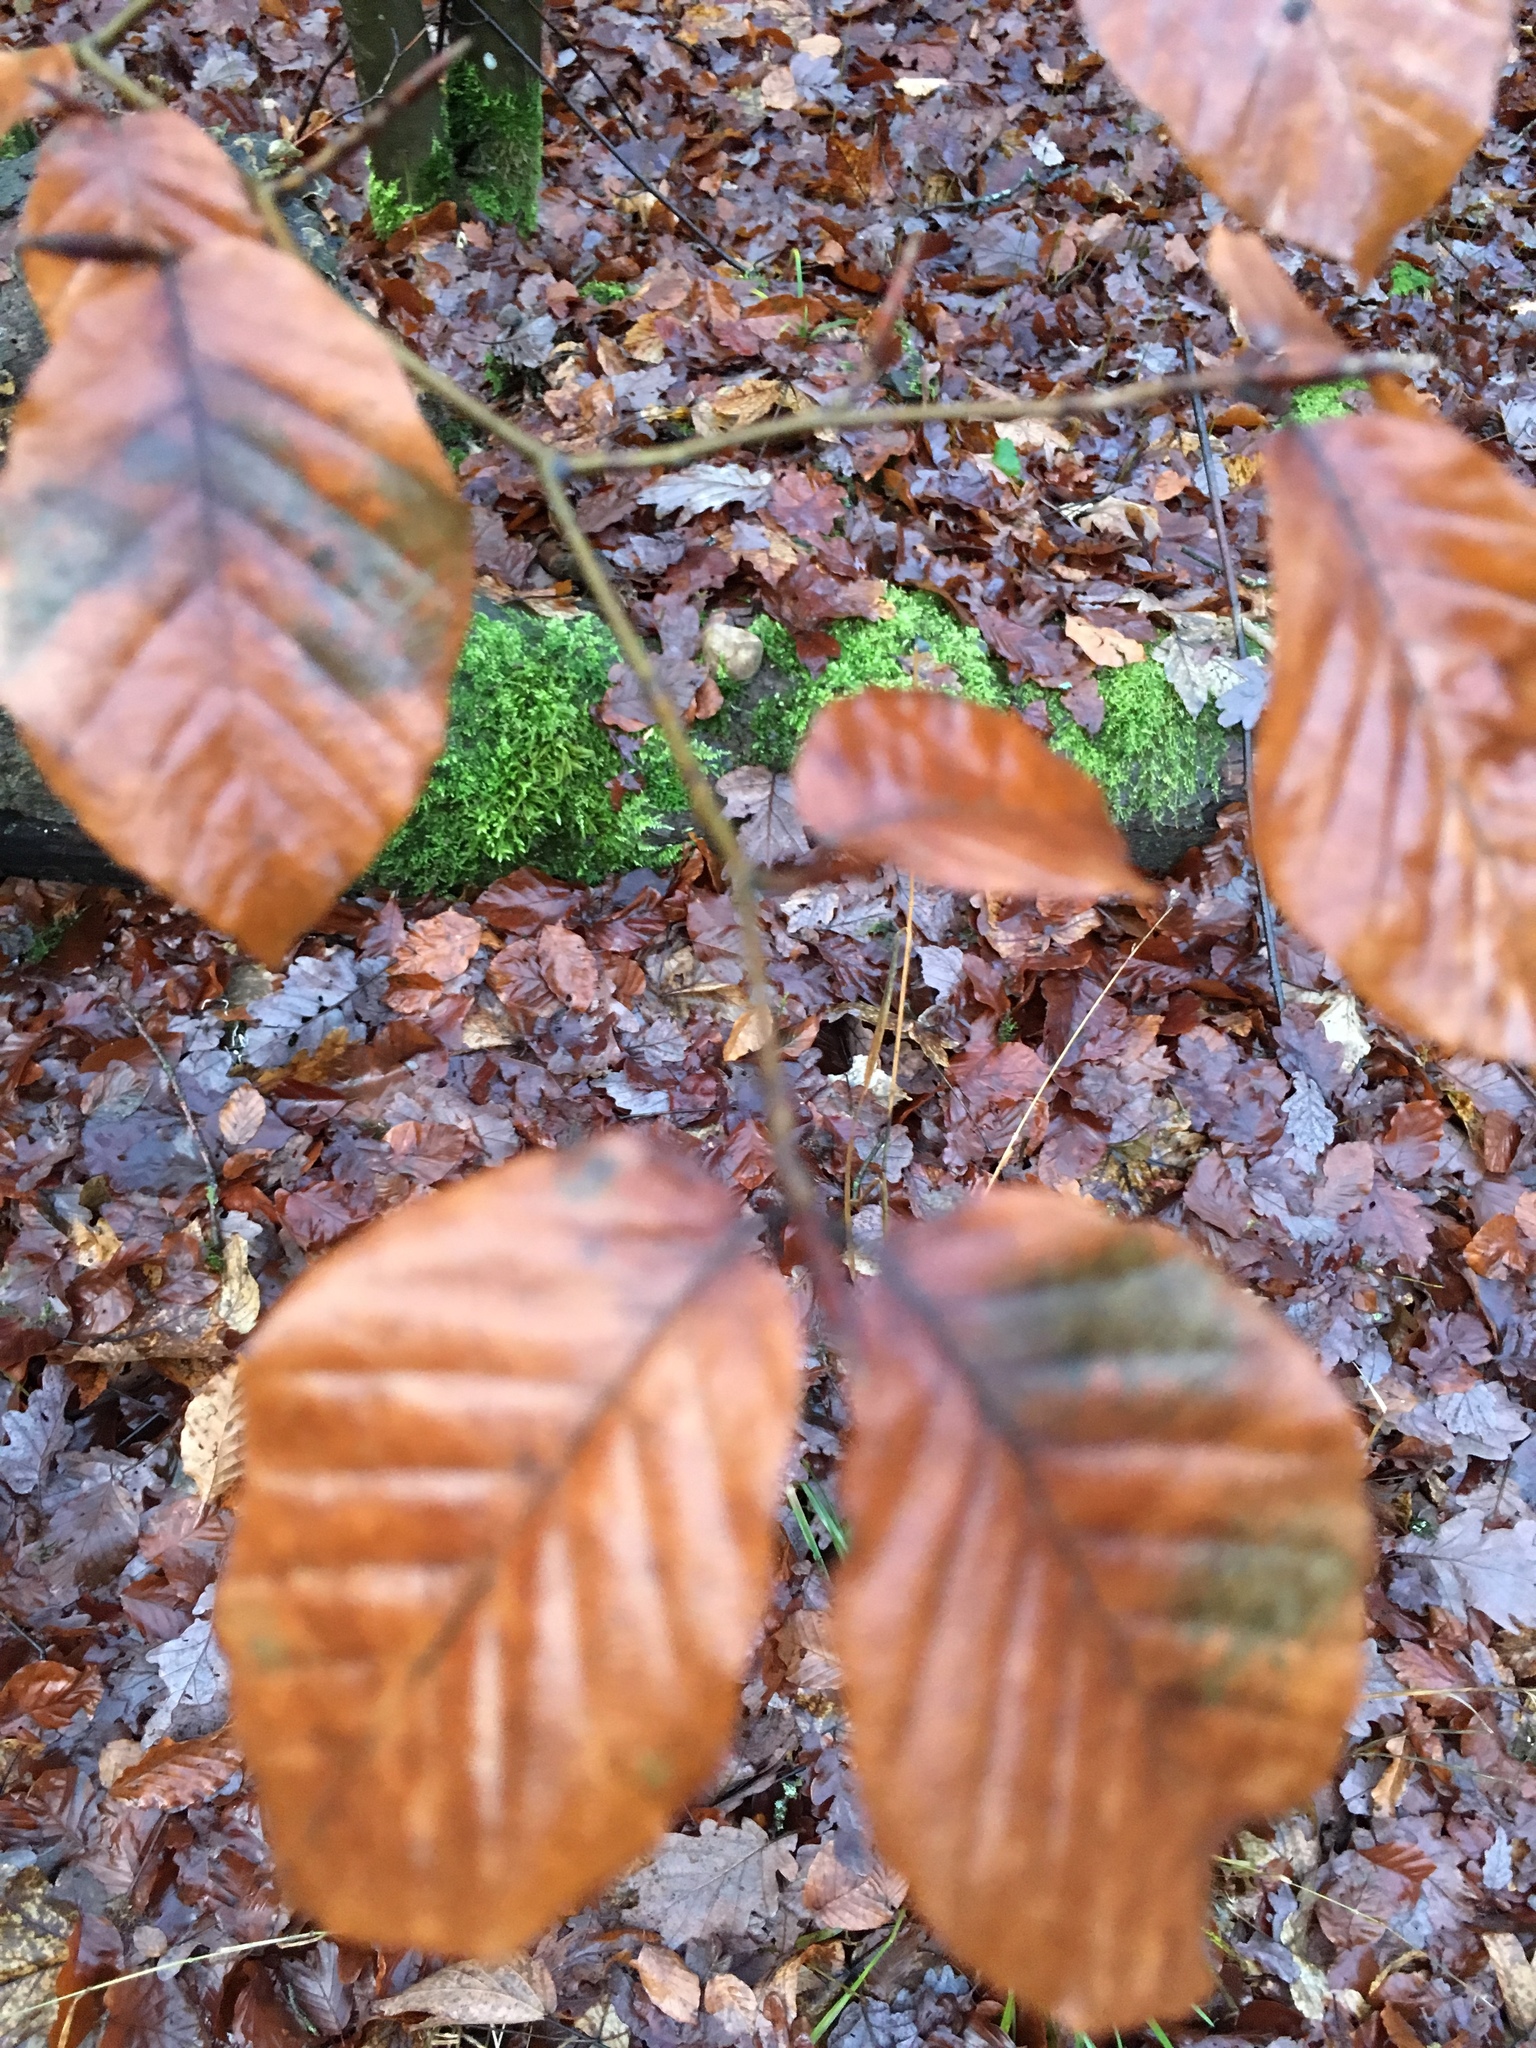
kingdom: Plantae
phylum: Tracheophyta
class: Magnoliopsida
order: Fagales
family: Fagaceae
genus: Fagus
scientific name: Fagus sylvatica
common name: Beech
